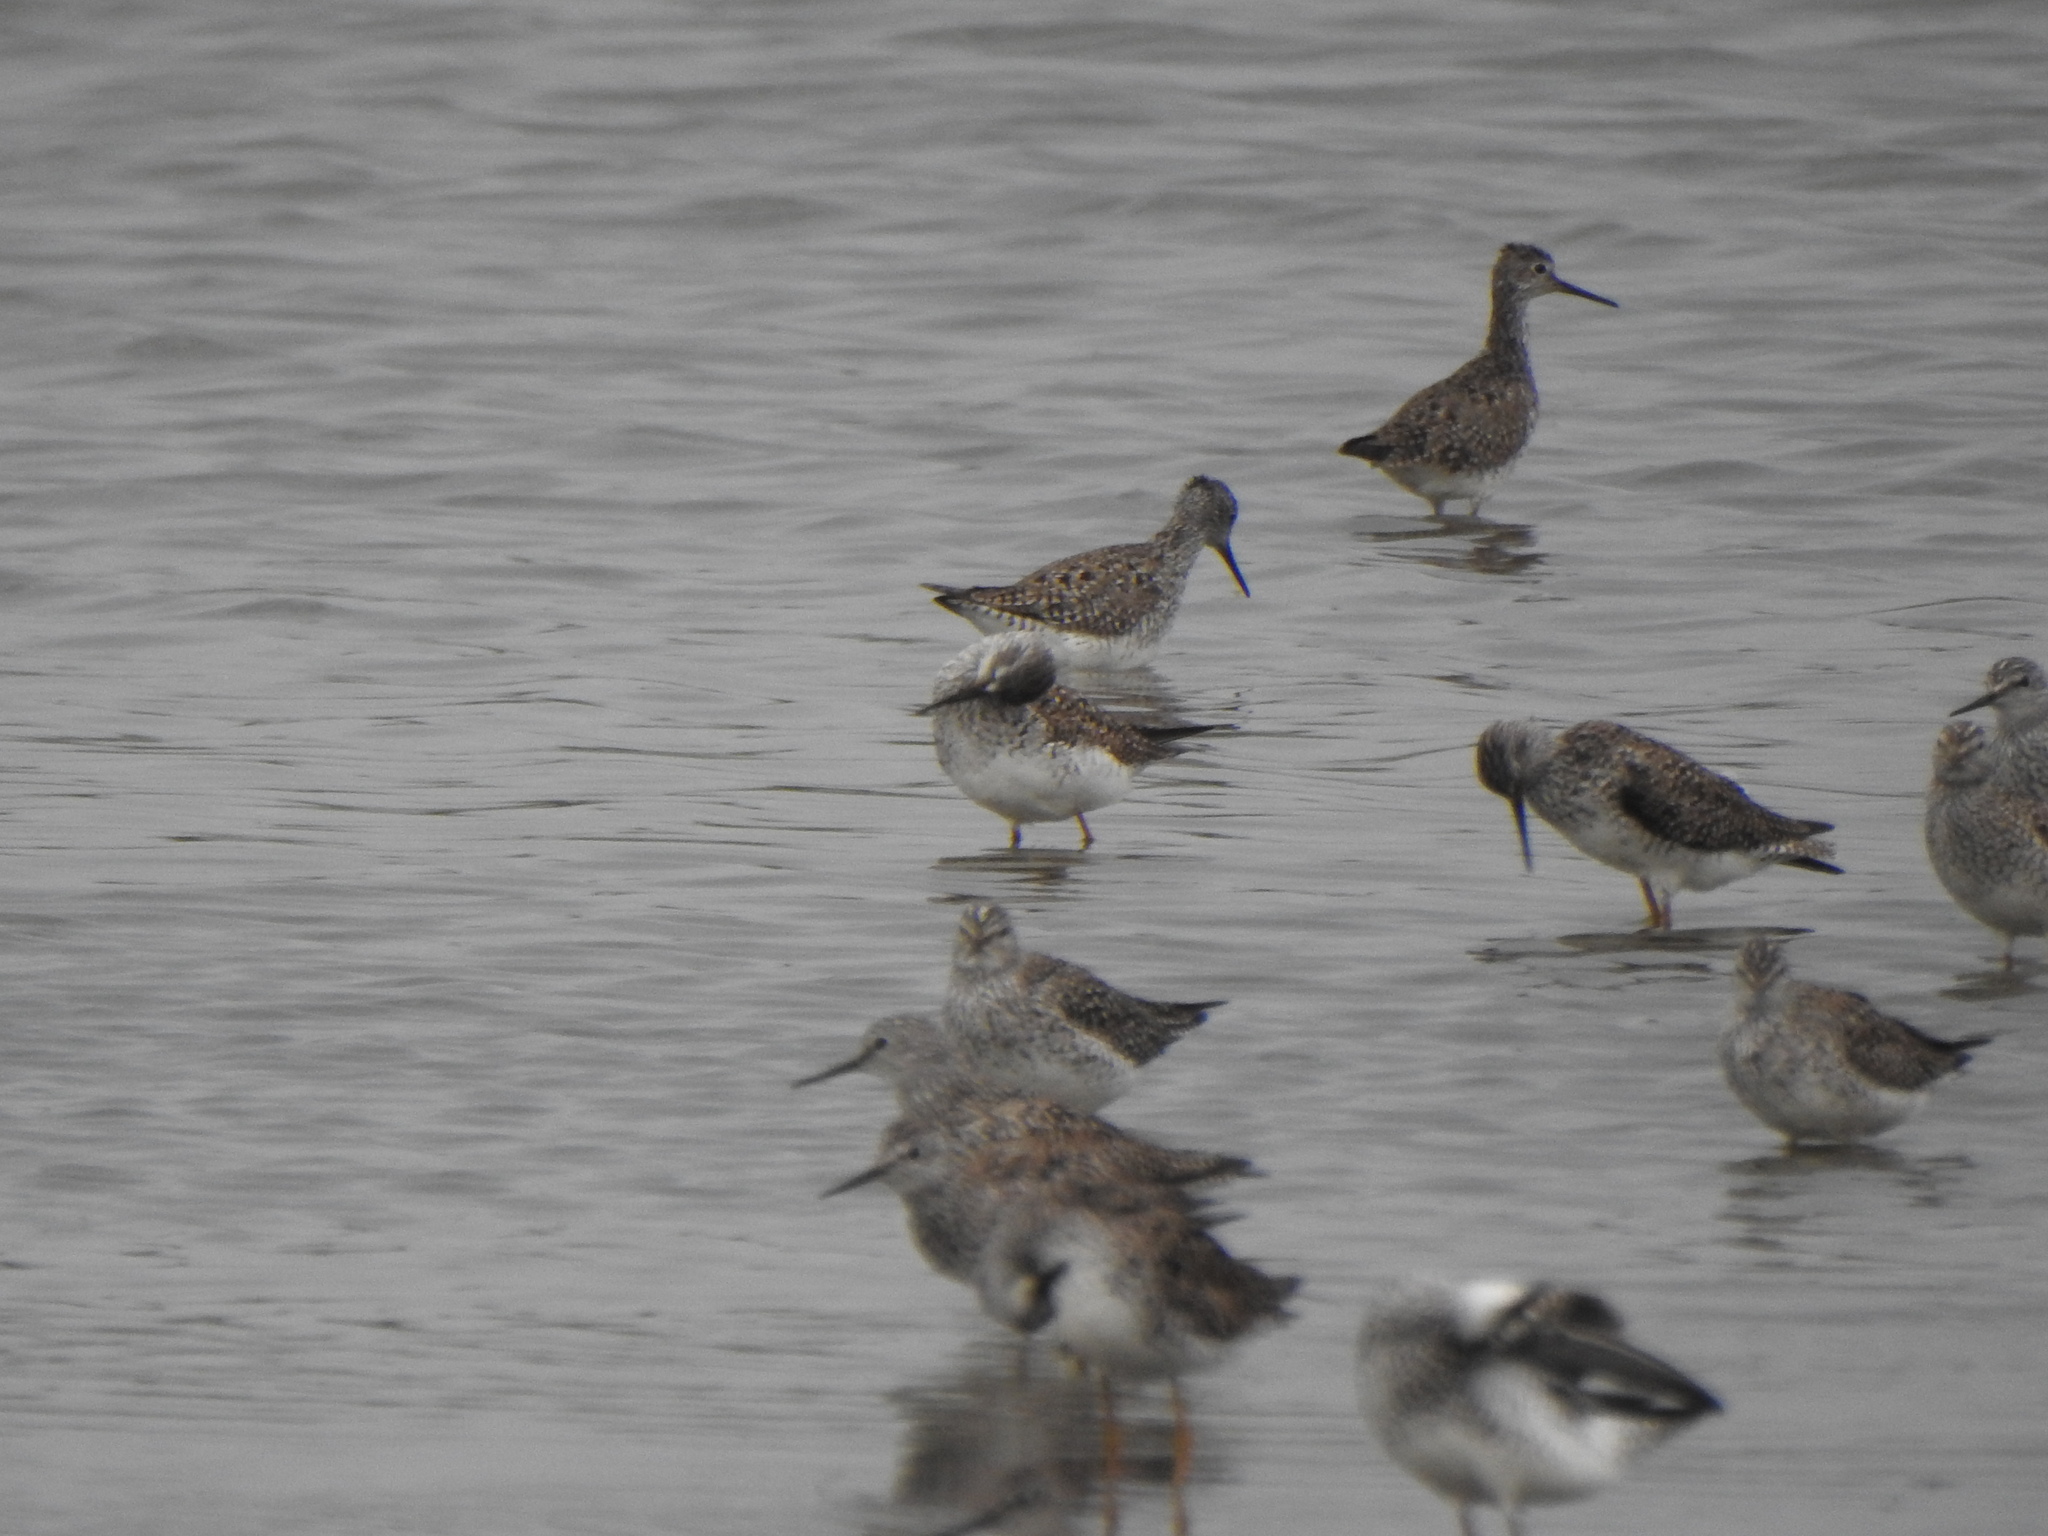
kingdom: Animalia
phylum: Chordata
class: Aves
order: Charadriiformes
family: Scolopacidae
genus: Tringa
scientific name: Tringa flavipes
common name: Lesser yellowlegs
